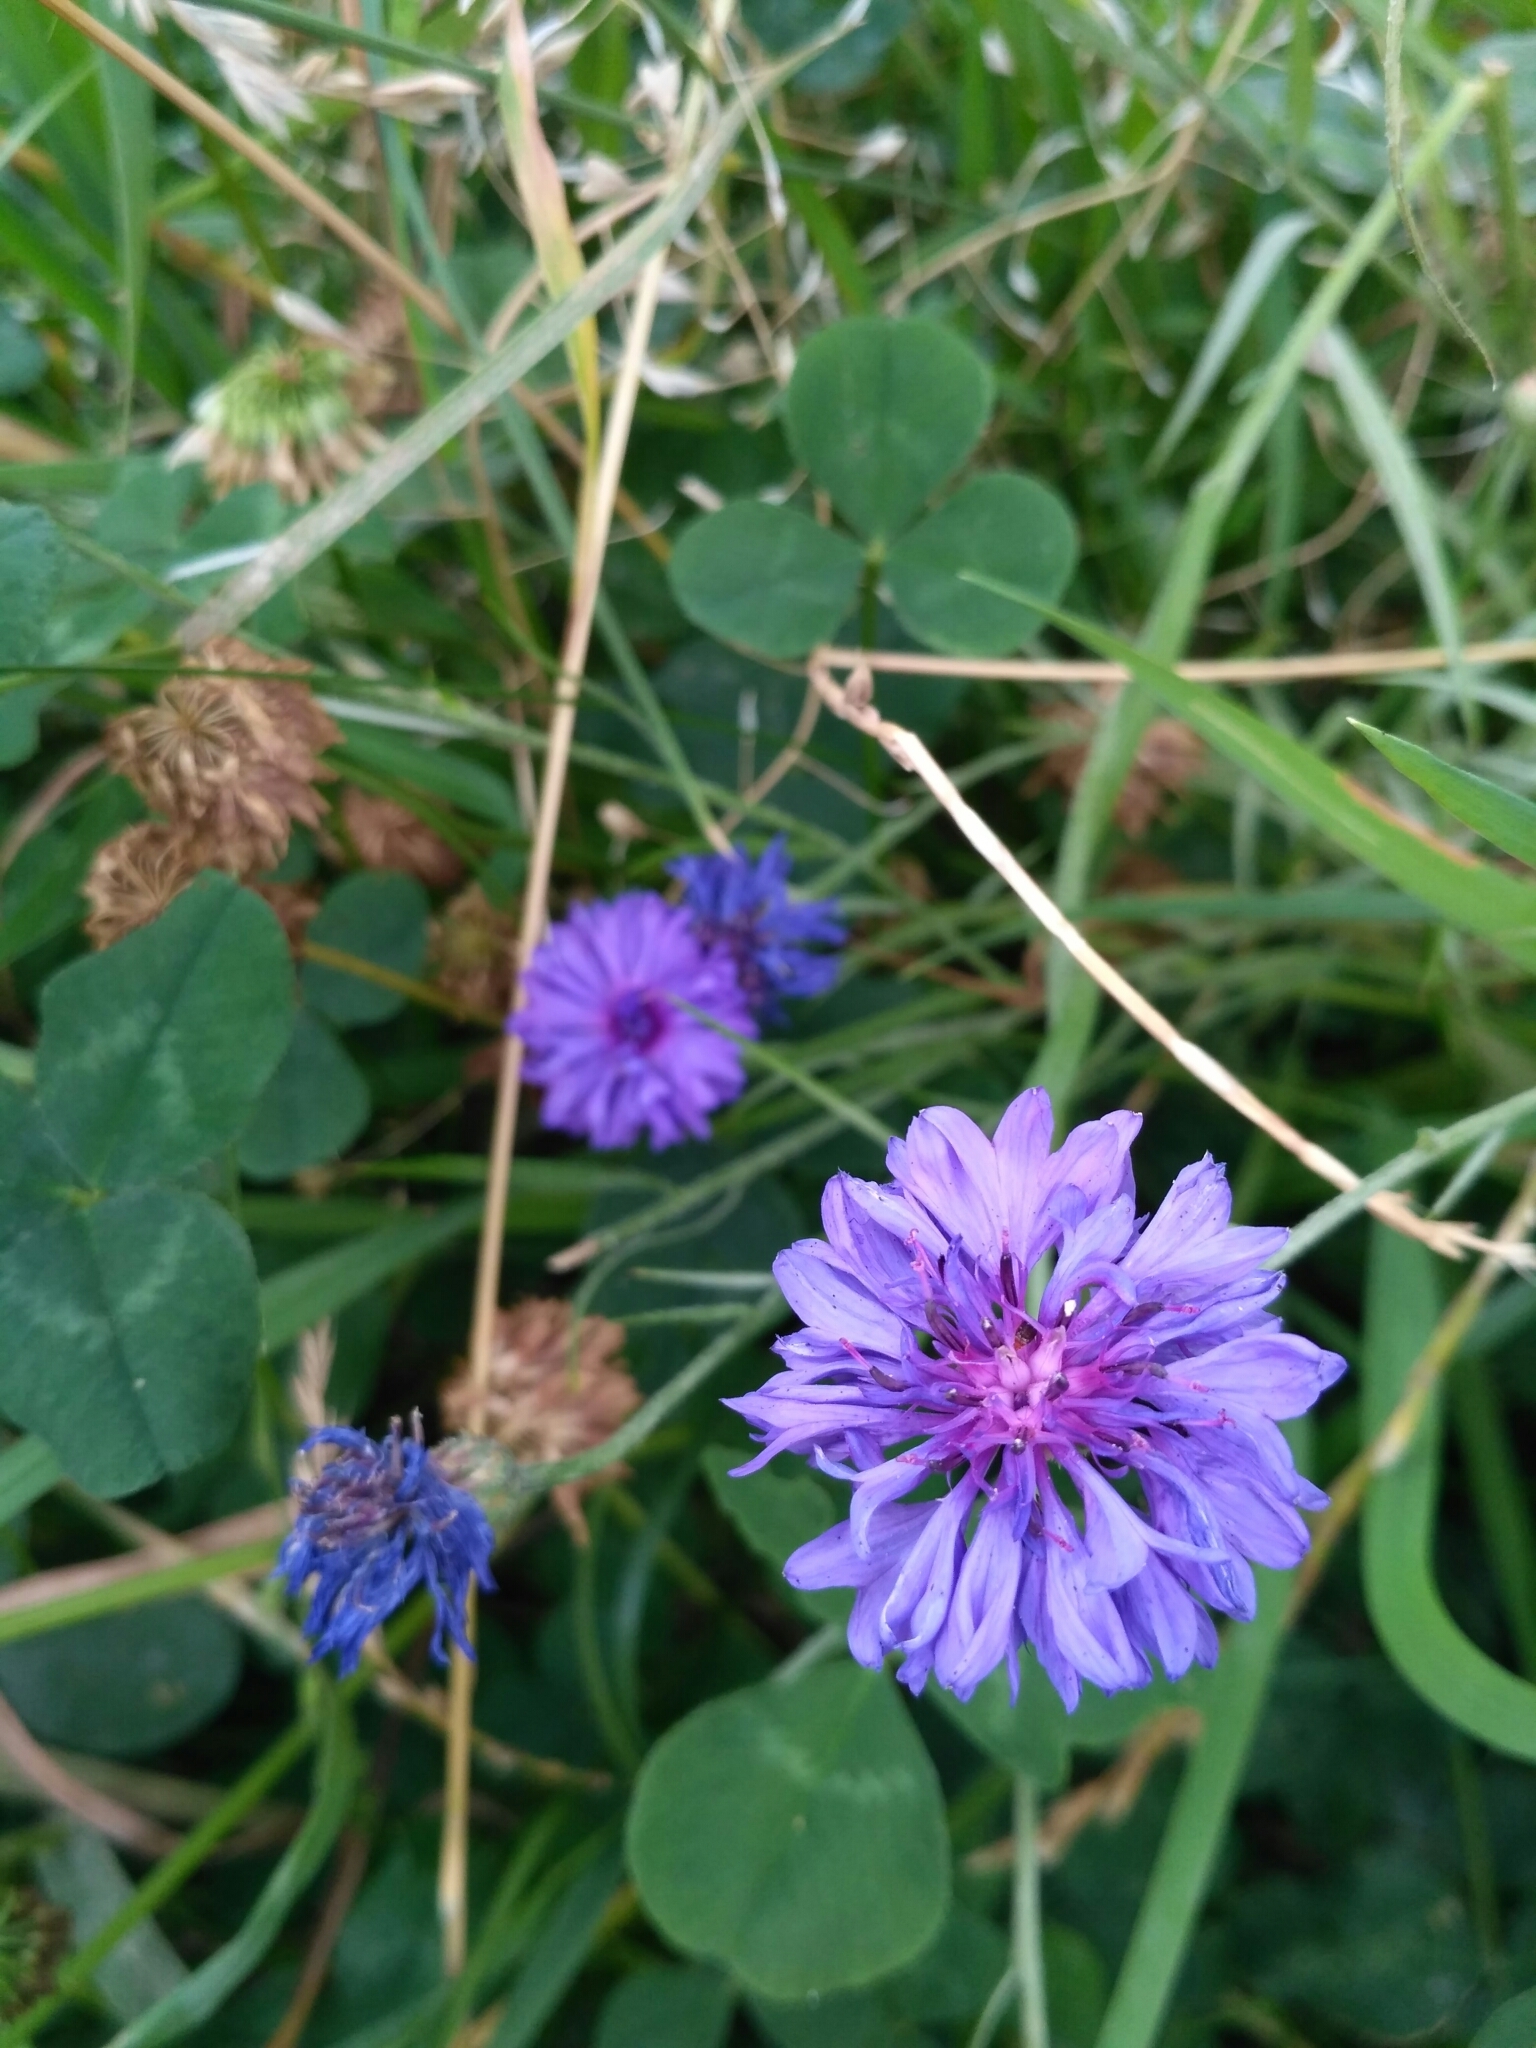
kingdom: Plantae
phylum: Tracheophyta
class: Magnoliopsida
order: Asterales
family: Asteraceae
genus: Centaurea
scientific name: Centaurea cyanus
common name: Cornflower
